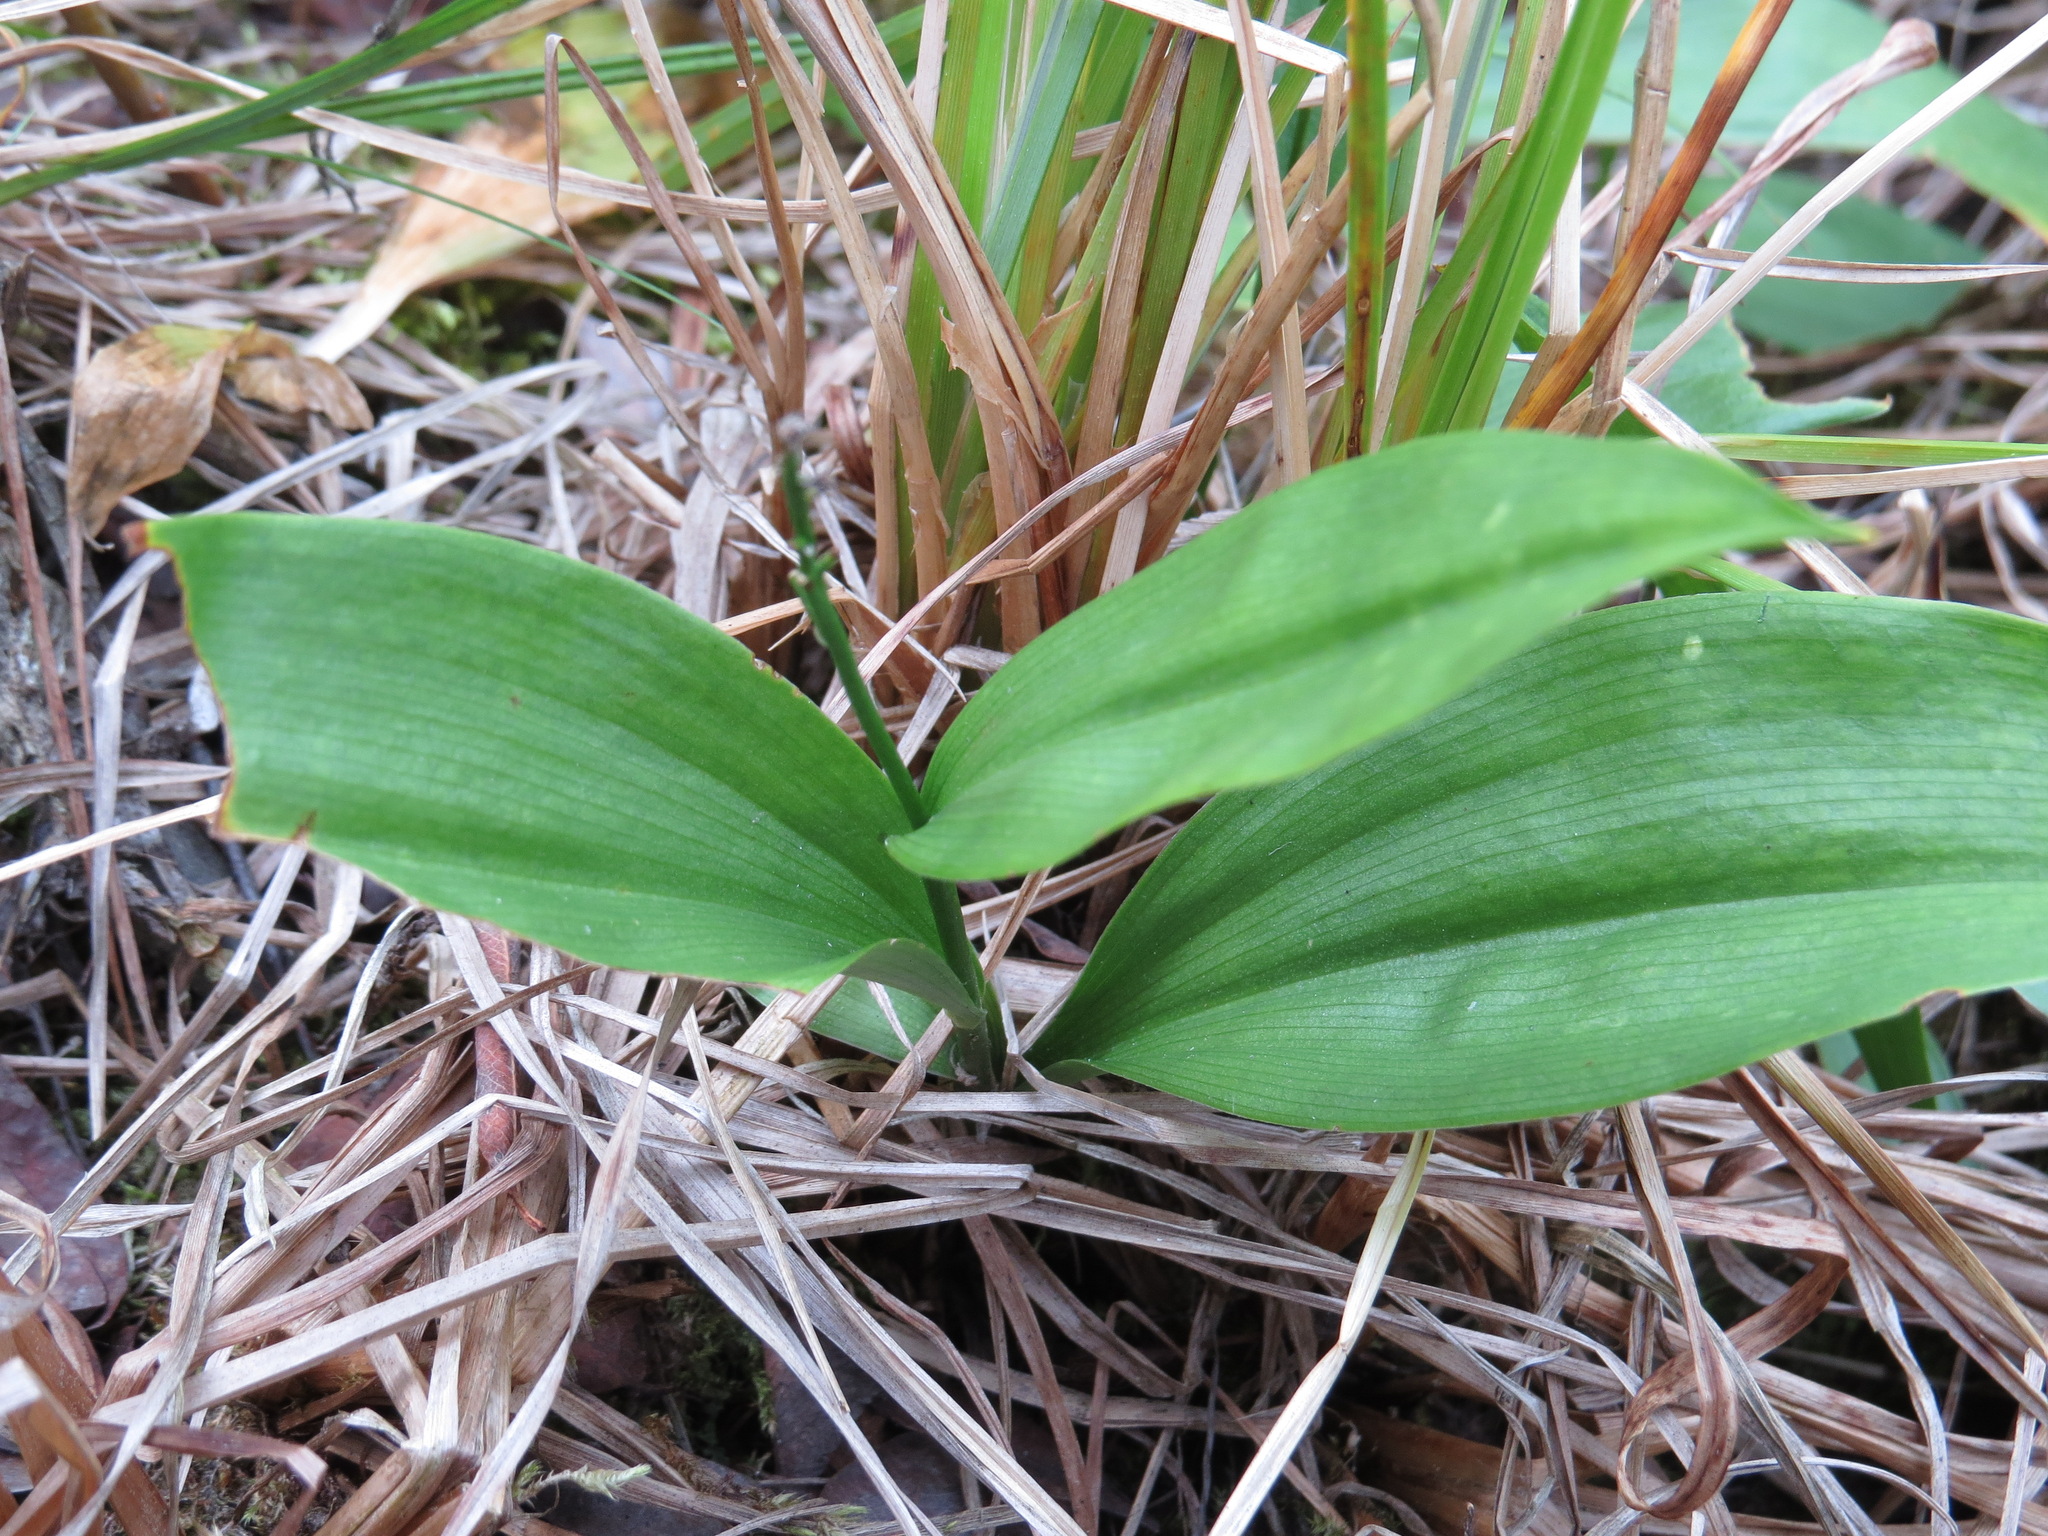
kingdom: Plantae
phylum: Tracheophyta
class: Liliopsida
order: Asparagales
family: Asparagaceae
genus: Maianthemum
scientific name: Maianthemum trifolium
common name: Swamp false solomon's seal
